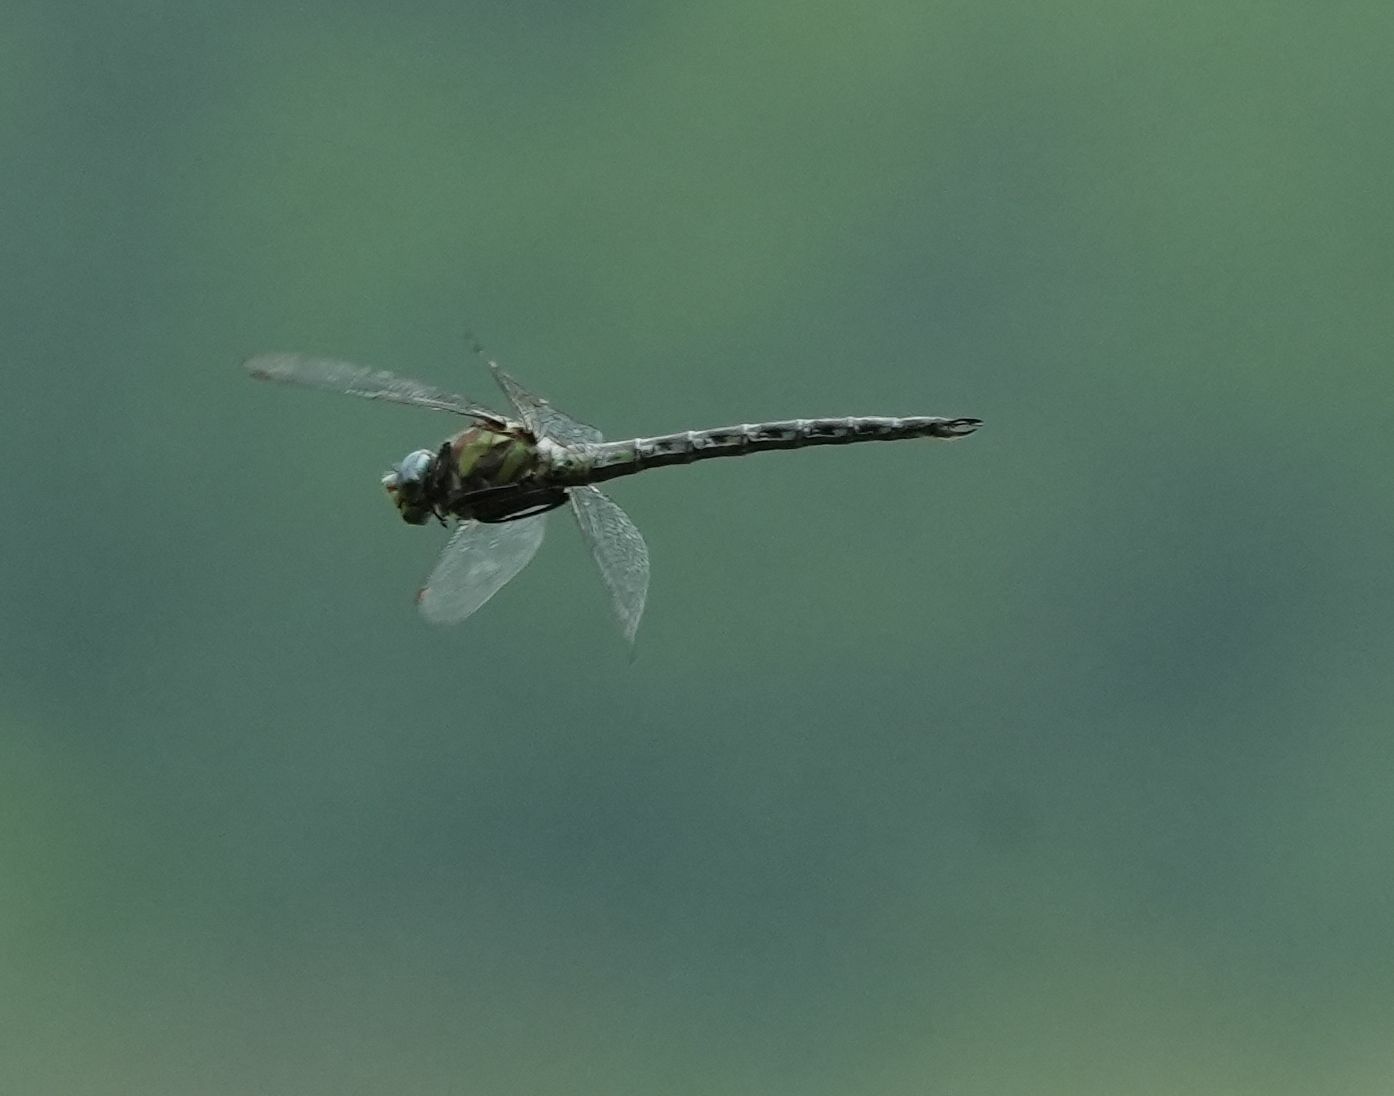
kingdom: Animalia
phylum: Arthropoda
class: Insecta
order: Odonata
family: Aeshnidae
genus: Nasiaeschna
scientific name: Nasiaeschna pentacantha
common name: Cyrano darner
